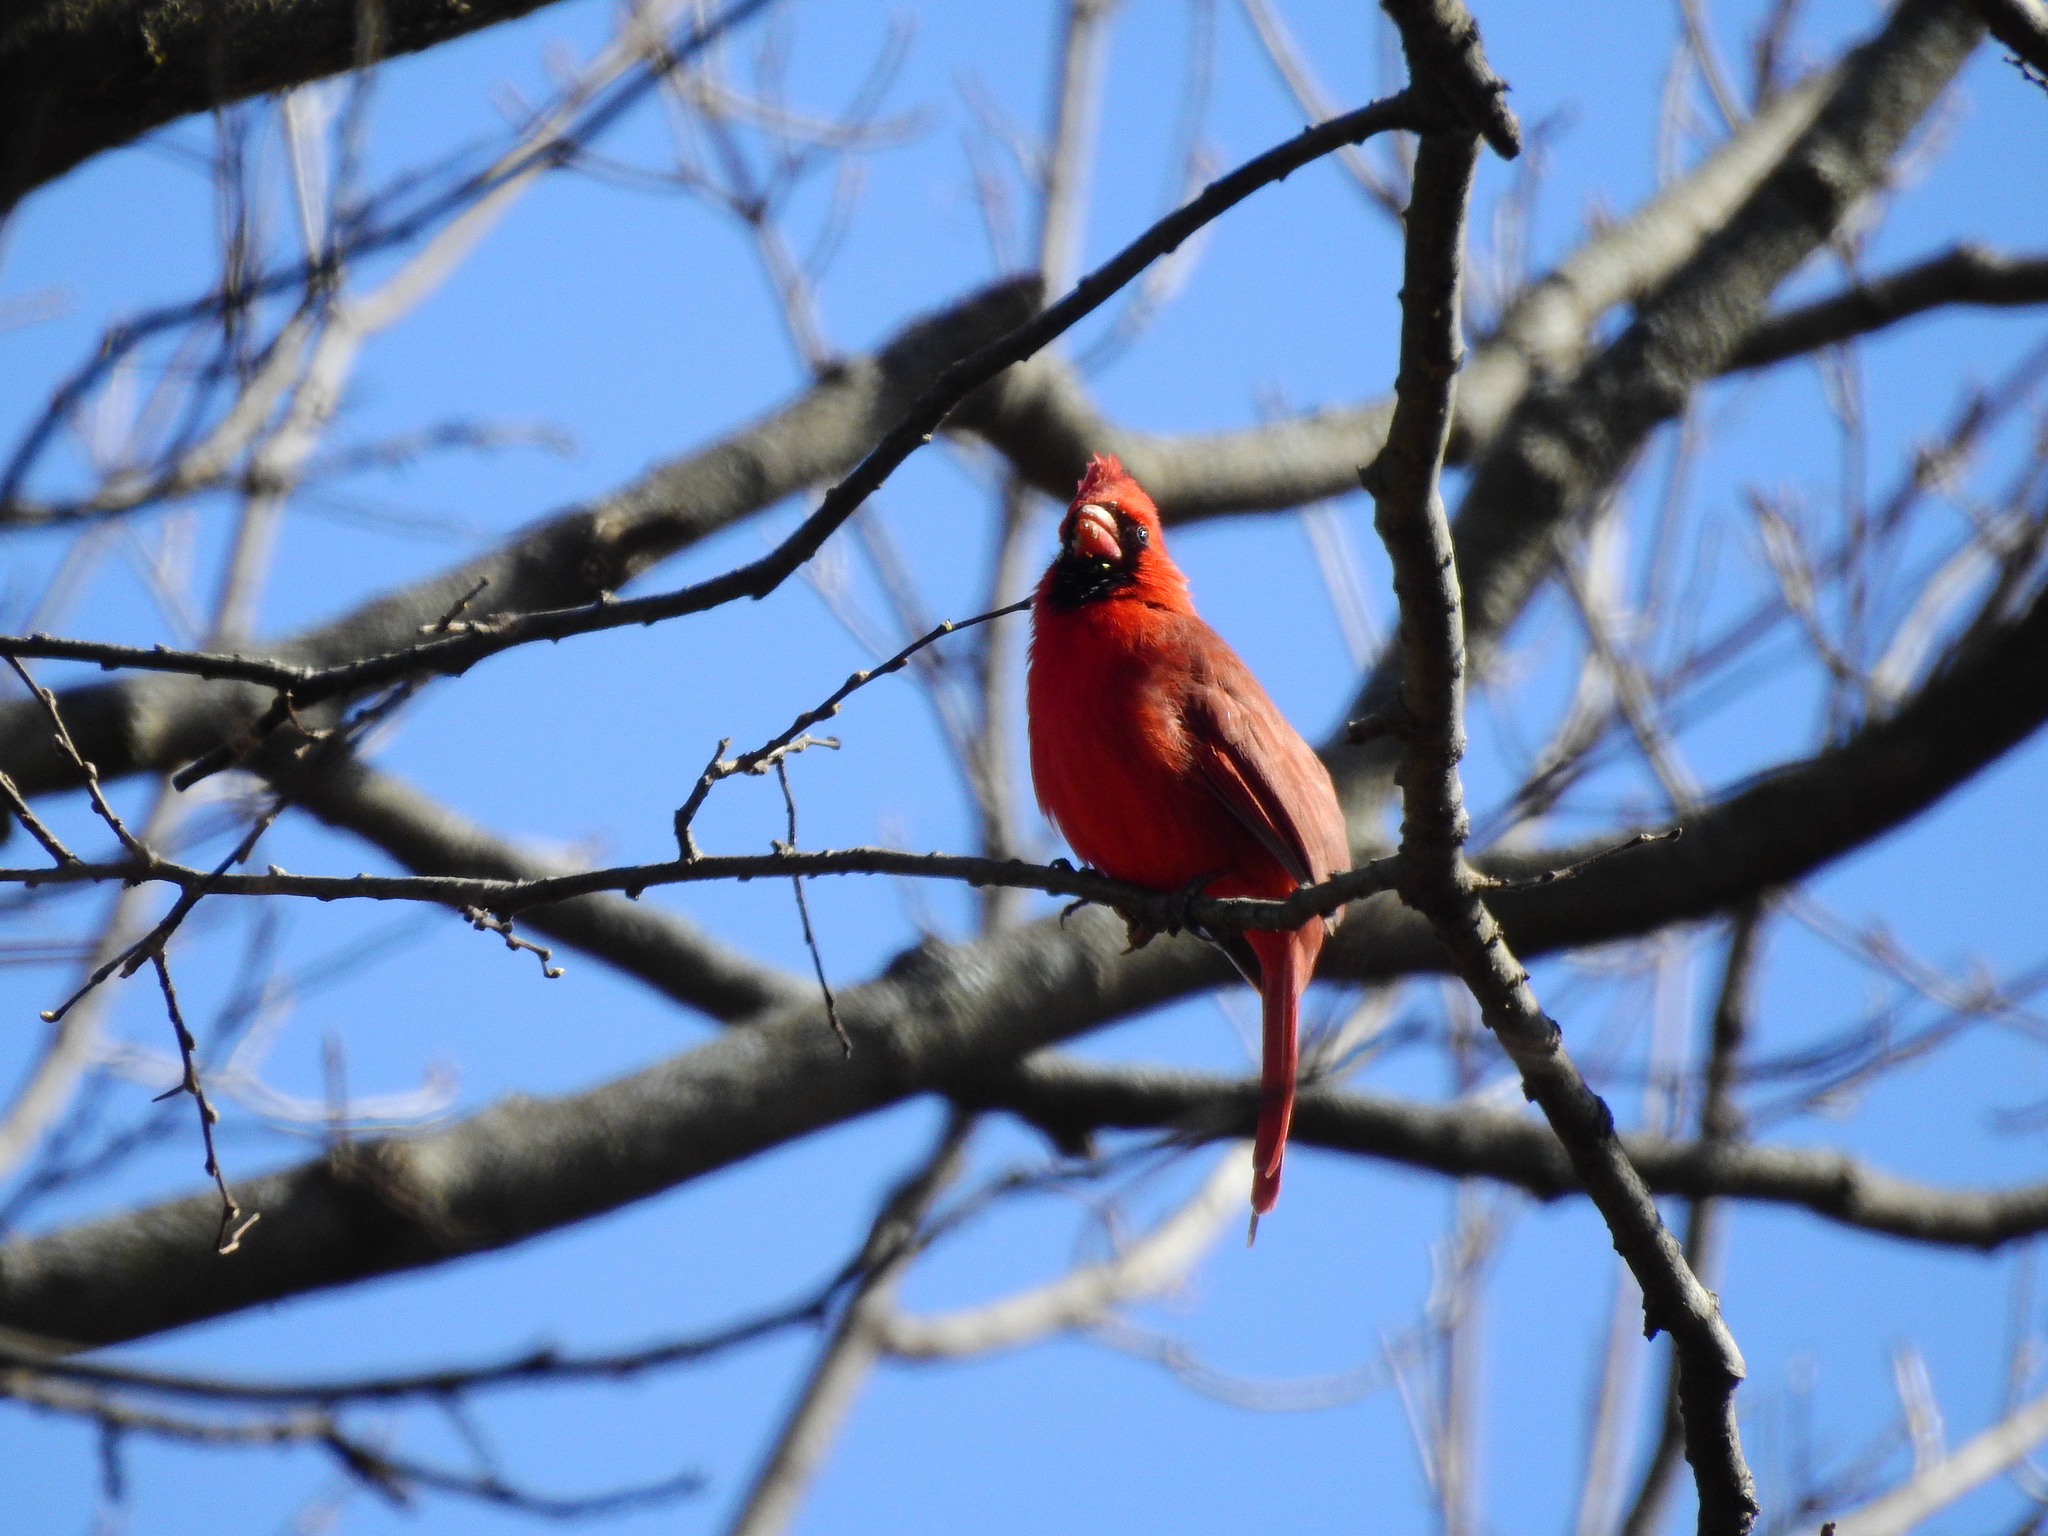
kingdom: Animalia
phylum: Chordata
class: Aves
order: Passeriformes
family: Cardinalidae
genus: Cardinalis
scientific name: Cardinalis cardinalis
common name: Northern cardinal
